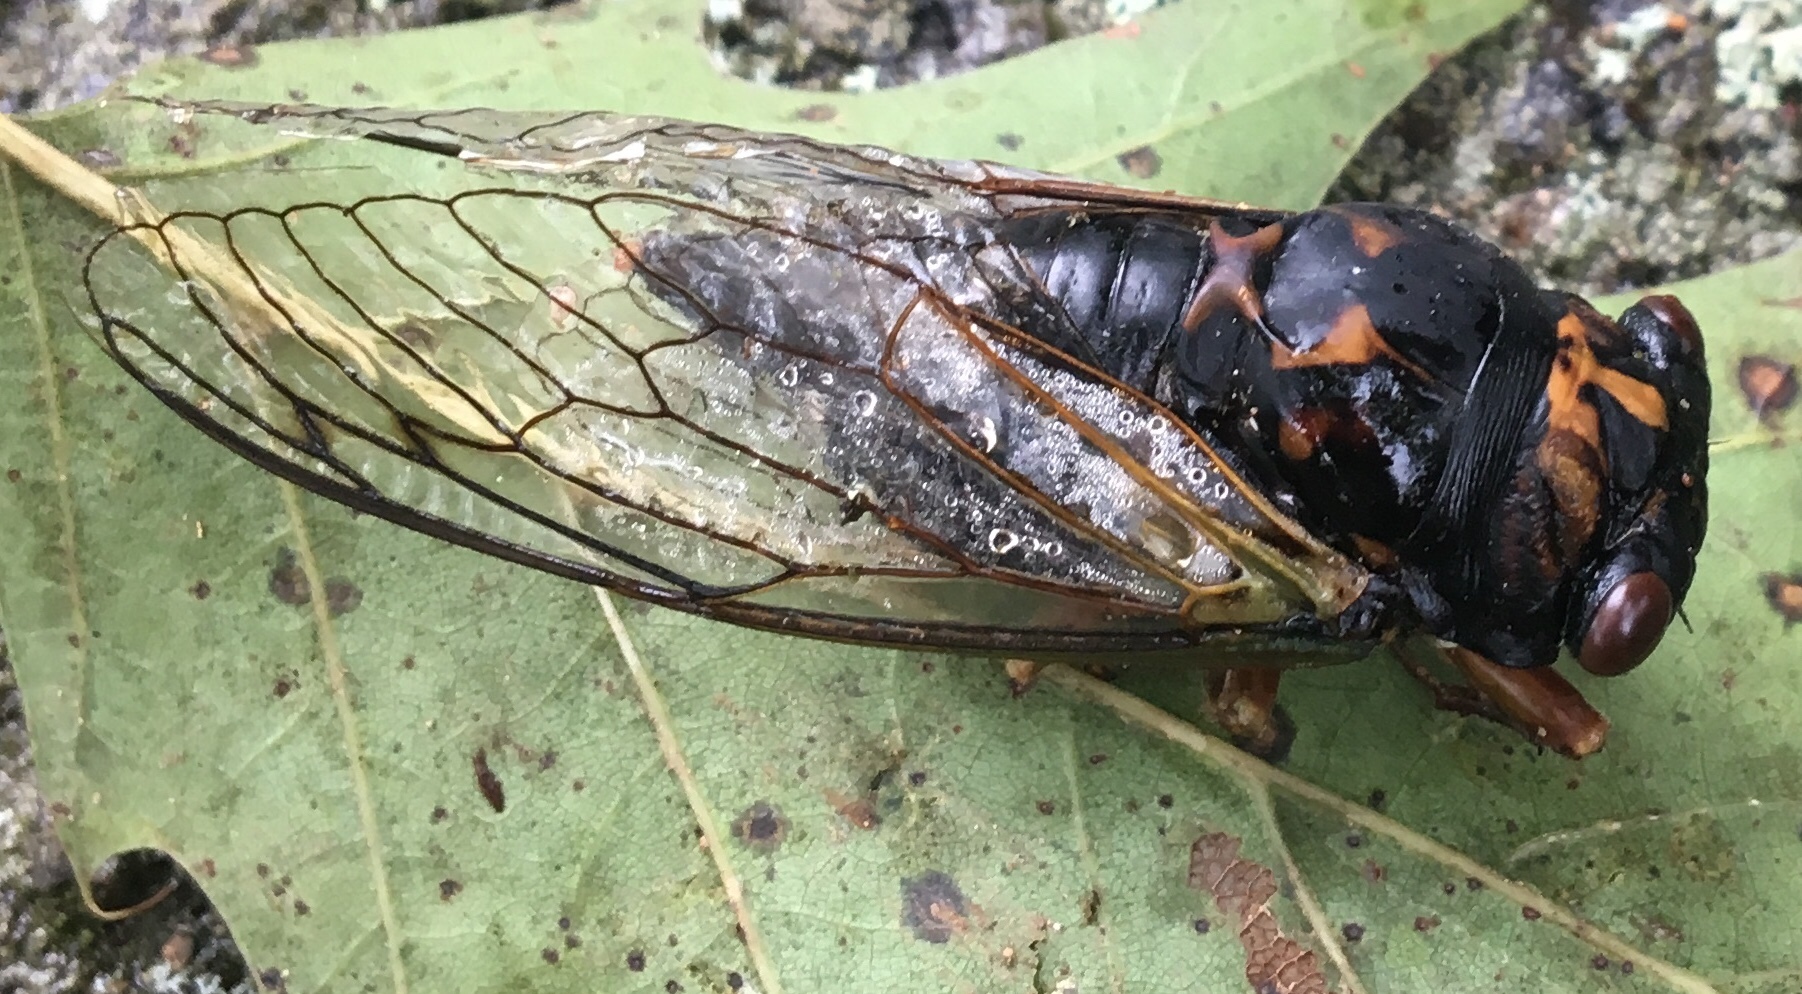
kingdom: Animalia
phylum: Arthropoda
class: Insecta
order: Hemiptera
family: Cicadidae
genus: Neotibicen
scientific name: Neotibicen lyricen
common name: Lyric cicada
